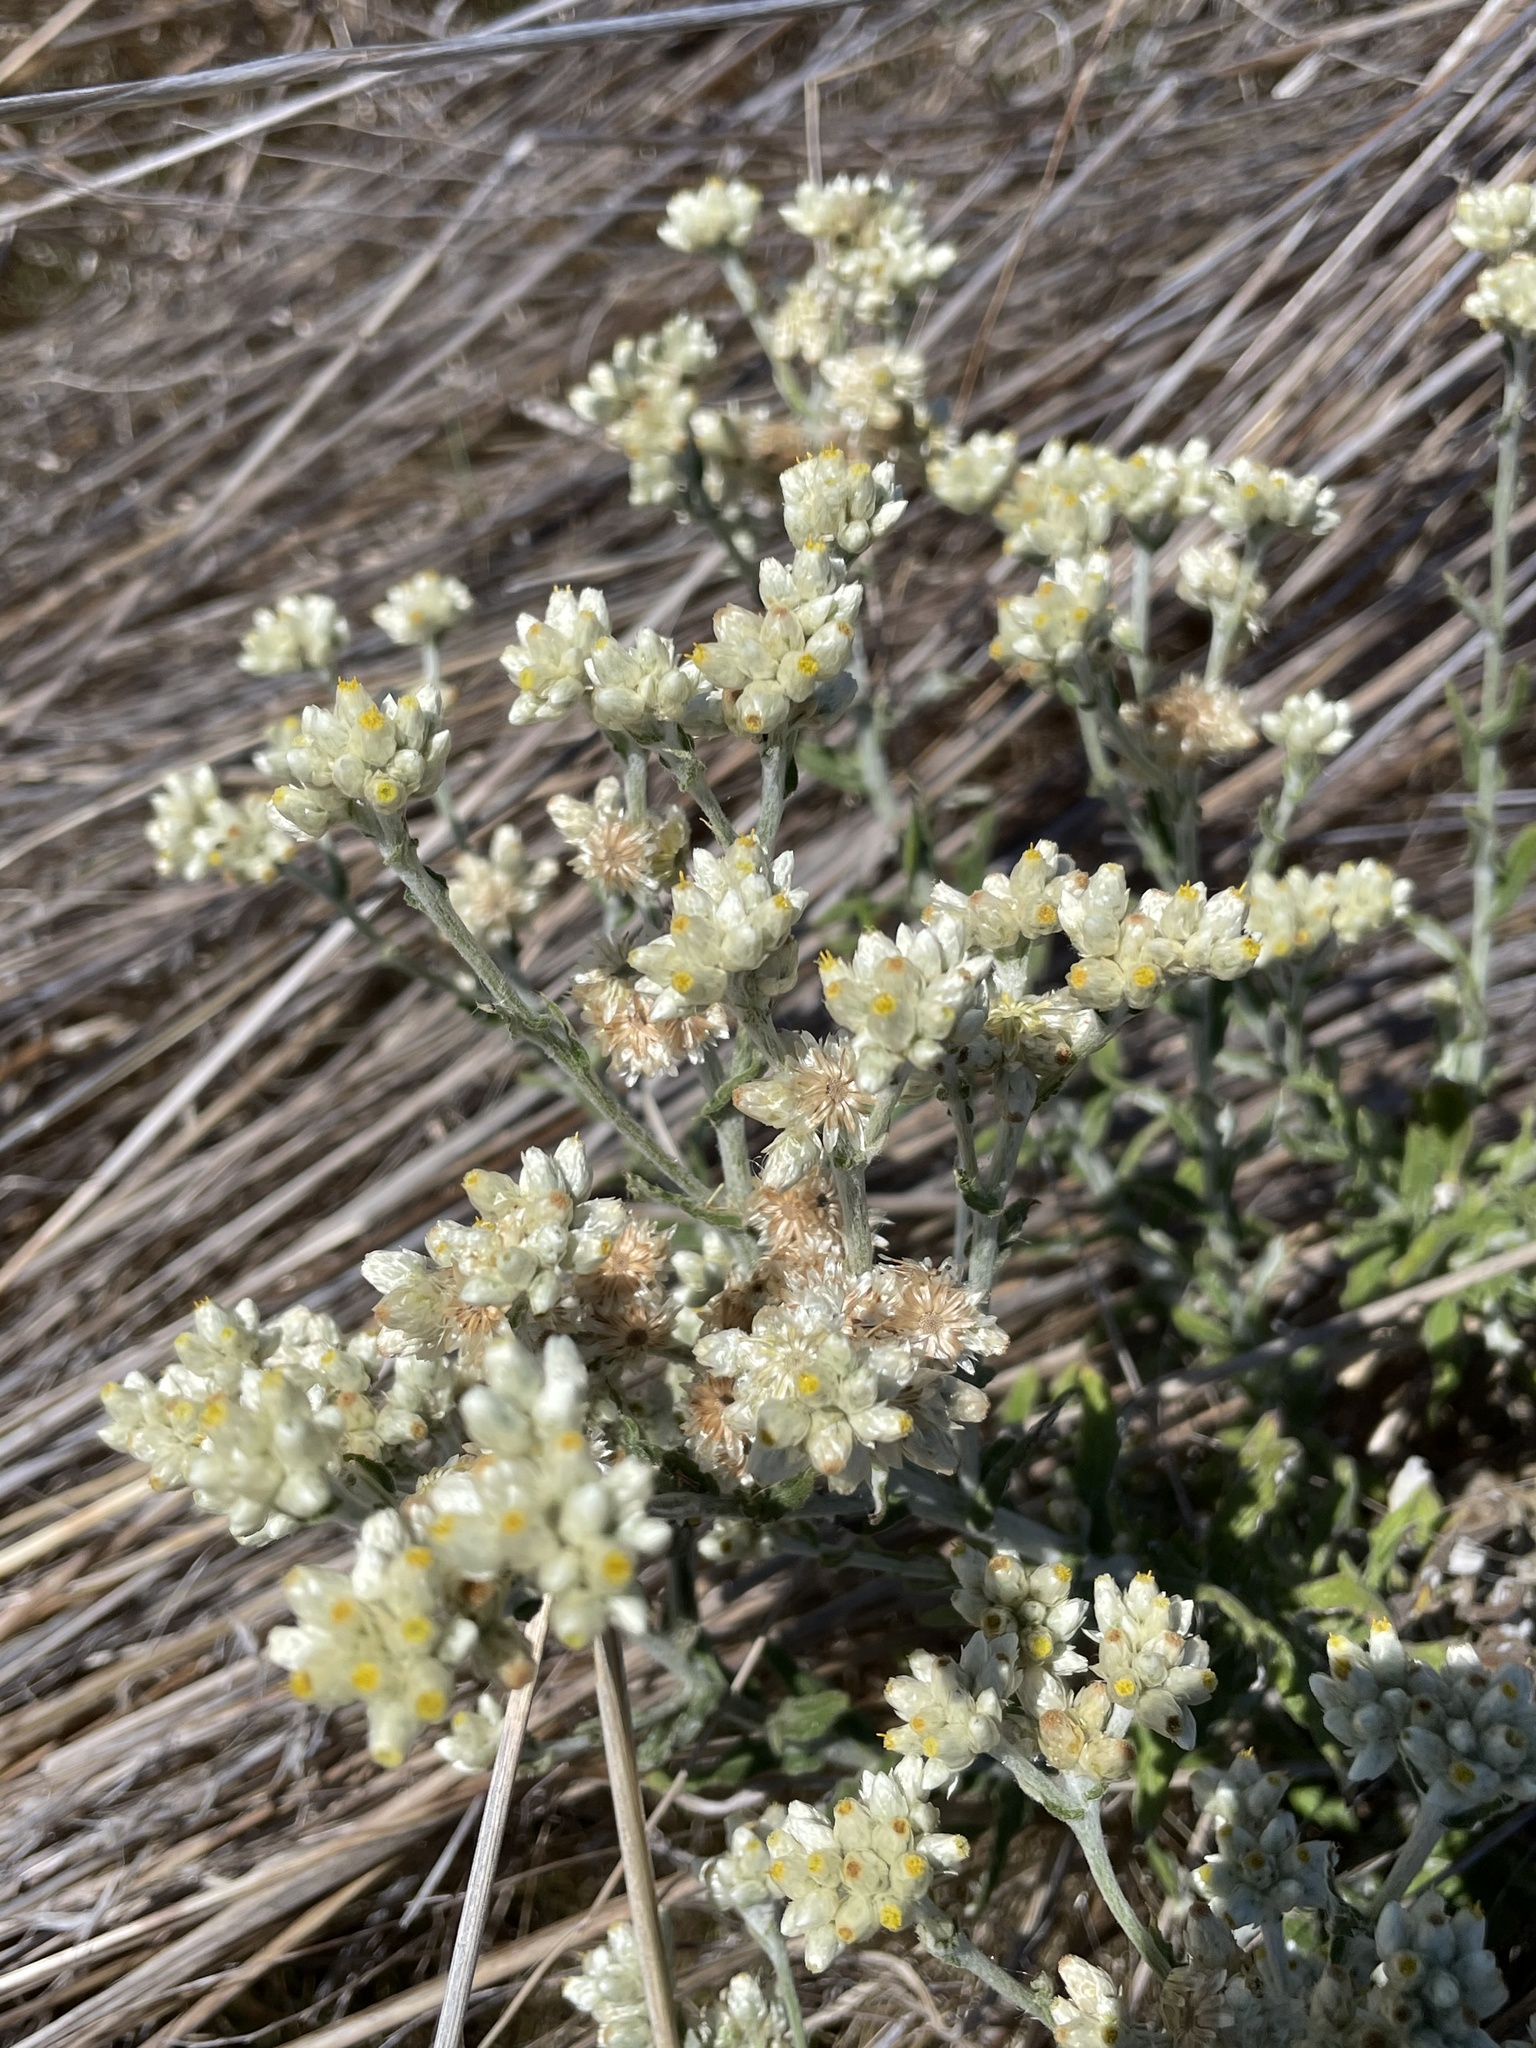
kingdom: Plantae
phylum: Tracheophyta
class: Magnoliopsida
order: Asterales
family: Asteraceae
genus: Pseudognaphalium
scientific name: Pseudognaphalium biolettii
